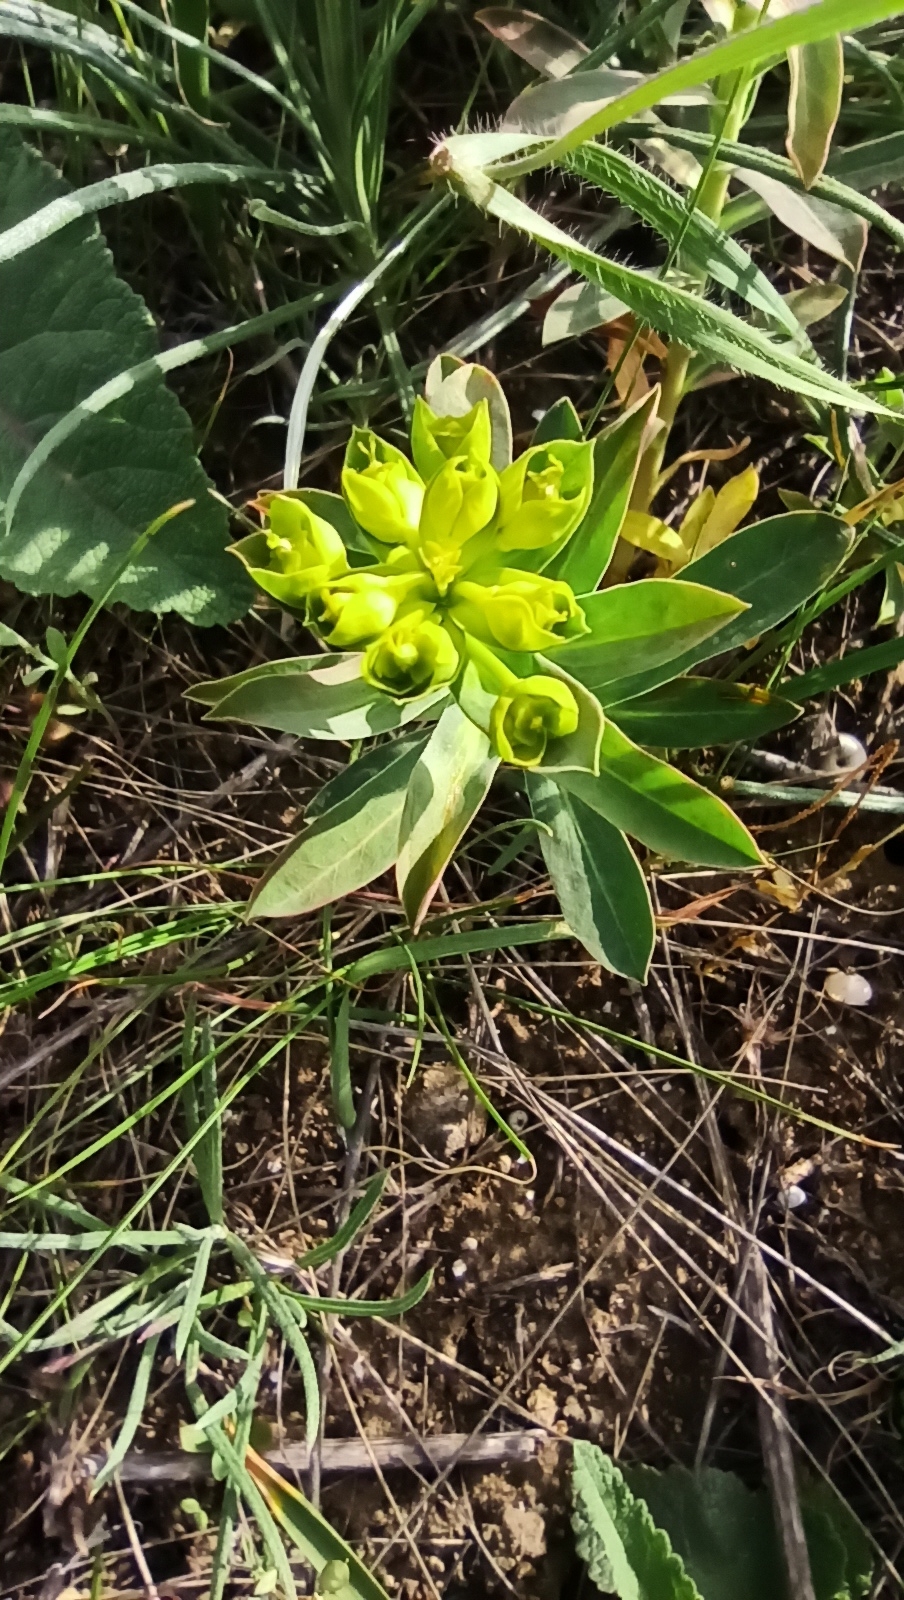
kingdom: Plantae
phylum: Tracheophyta
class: Magnoliopsida
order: Malpighiales
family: Euphorbiaceae
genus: Euphorbia
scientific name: Euphorbia stepposa
